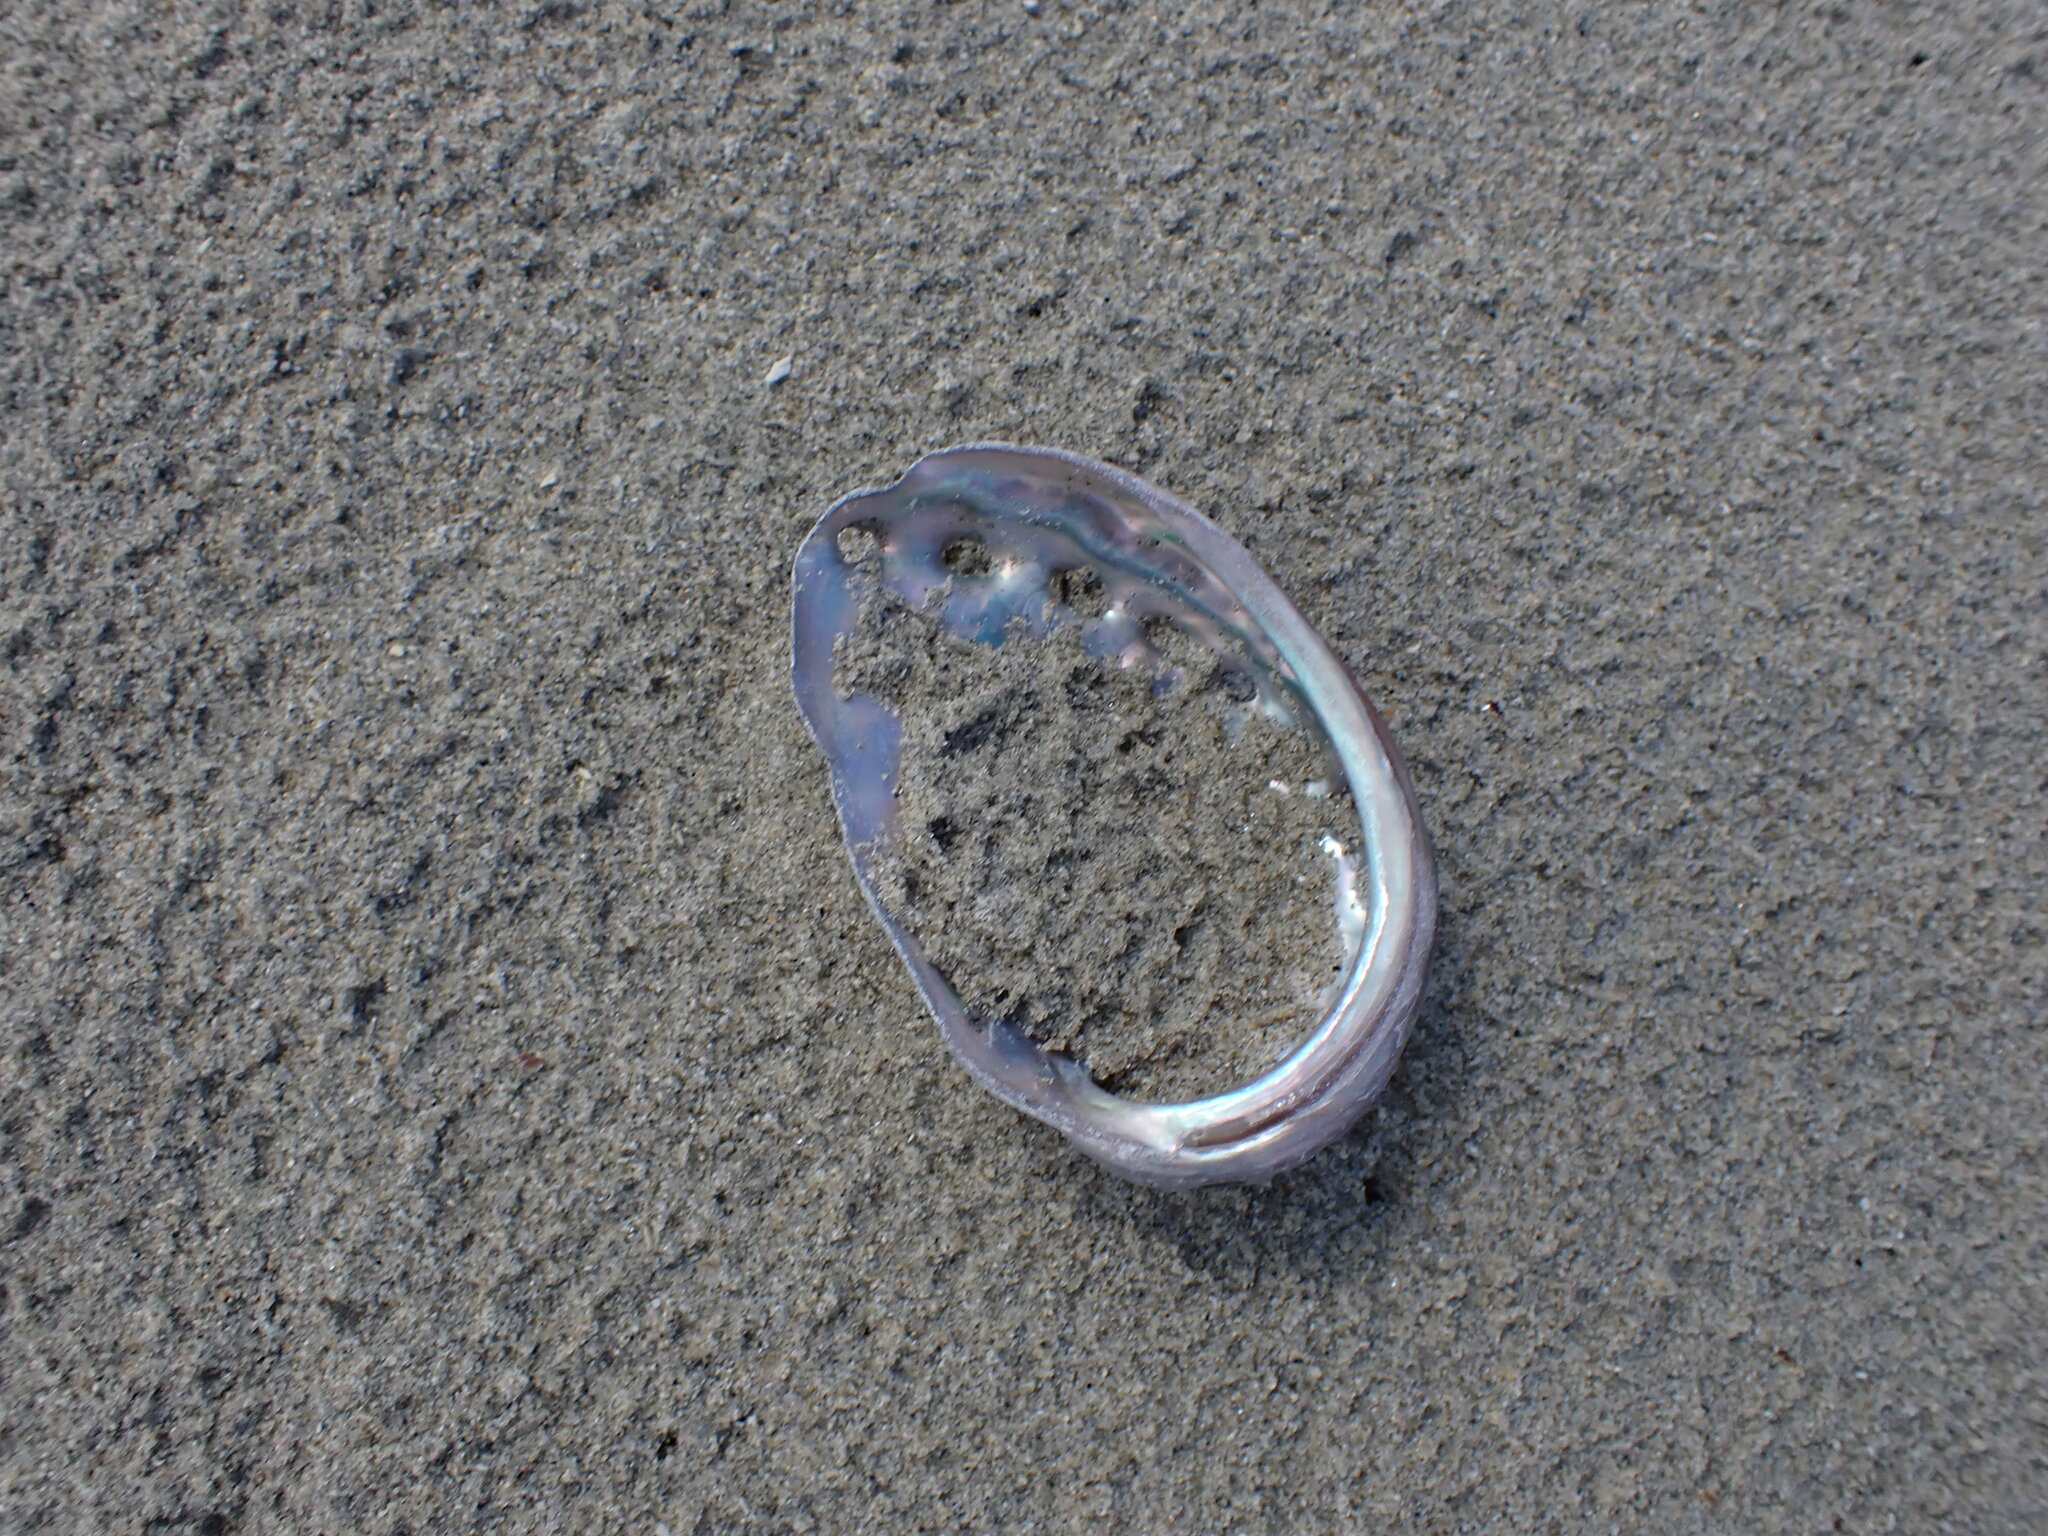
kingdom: Animalia
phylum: Mollusca
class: Gastropoda
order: Lepetellida
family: Haliotidae
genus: Haliotis
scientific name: Haliotis kamtschatkana
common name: Pinto abalone
